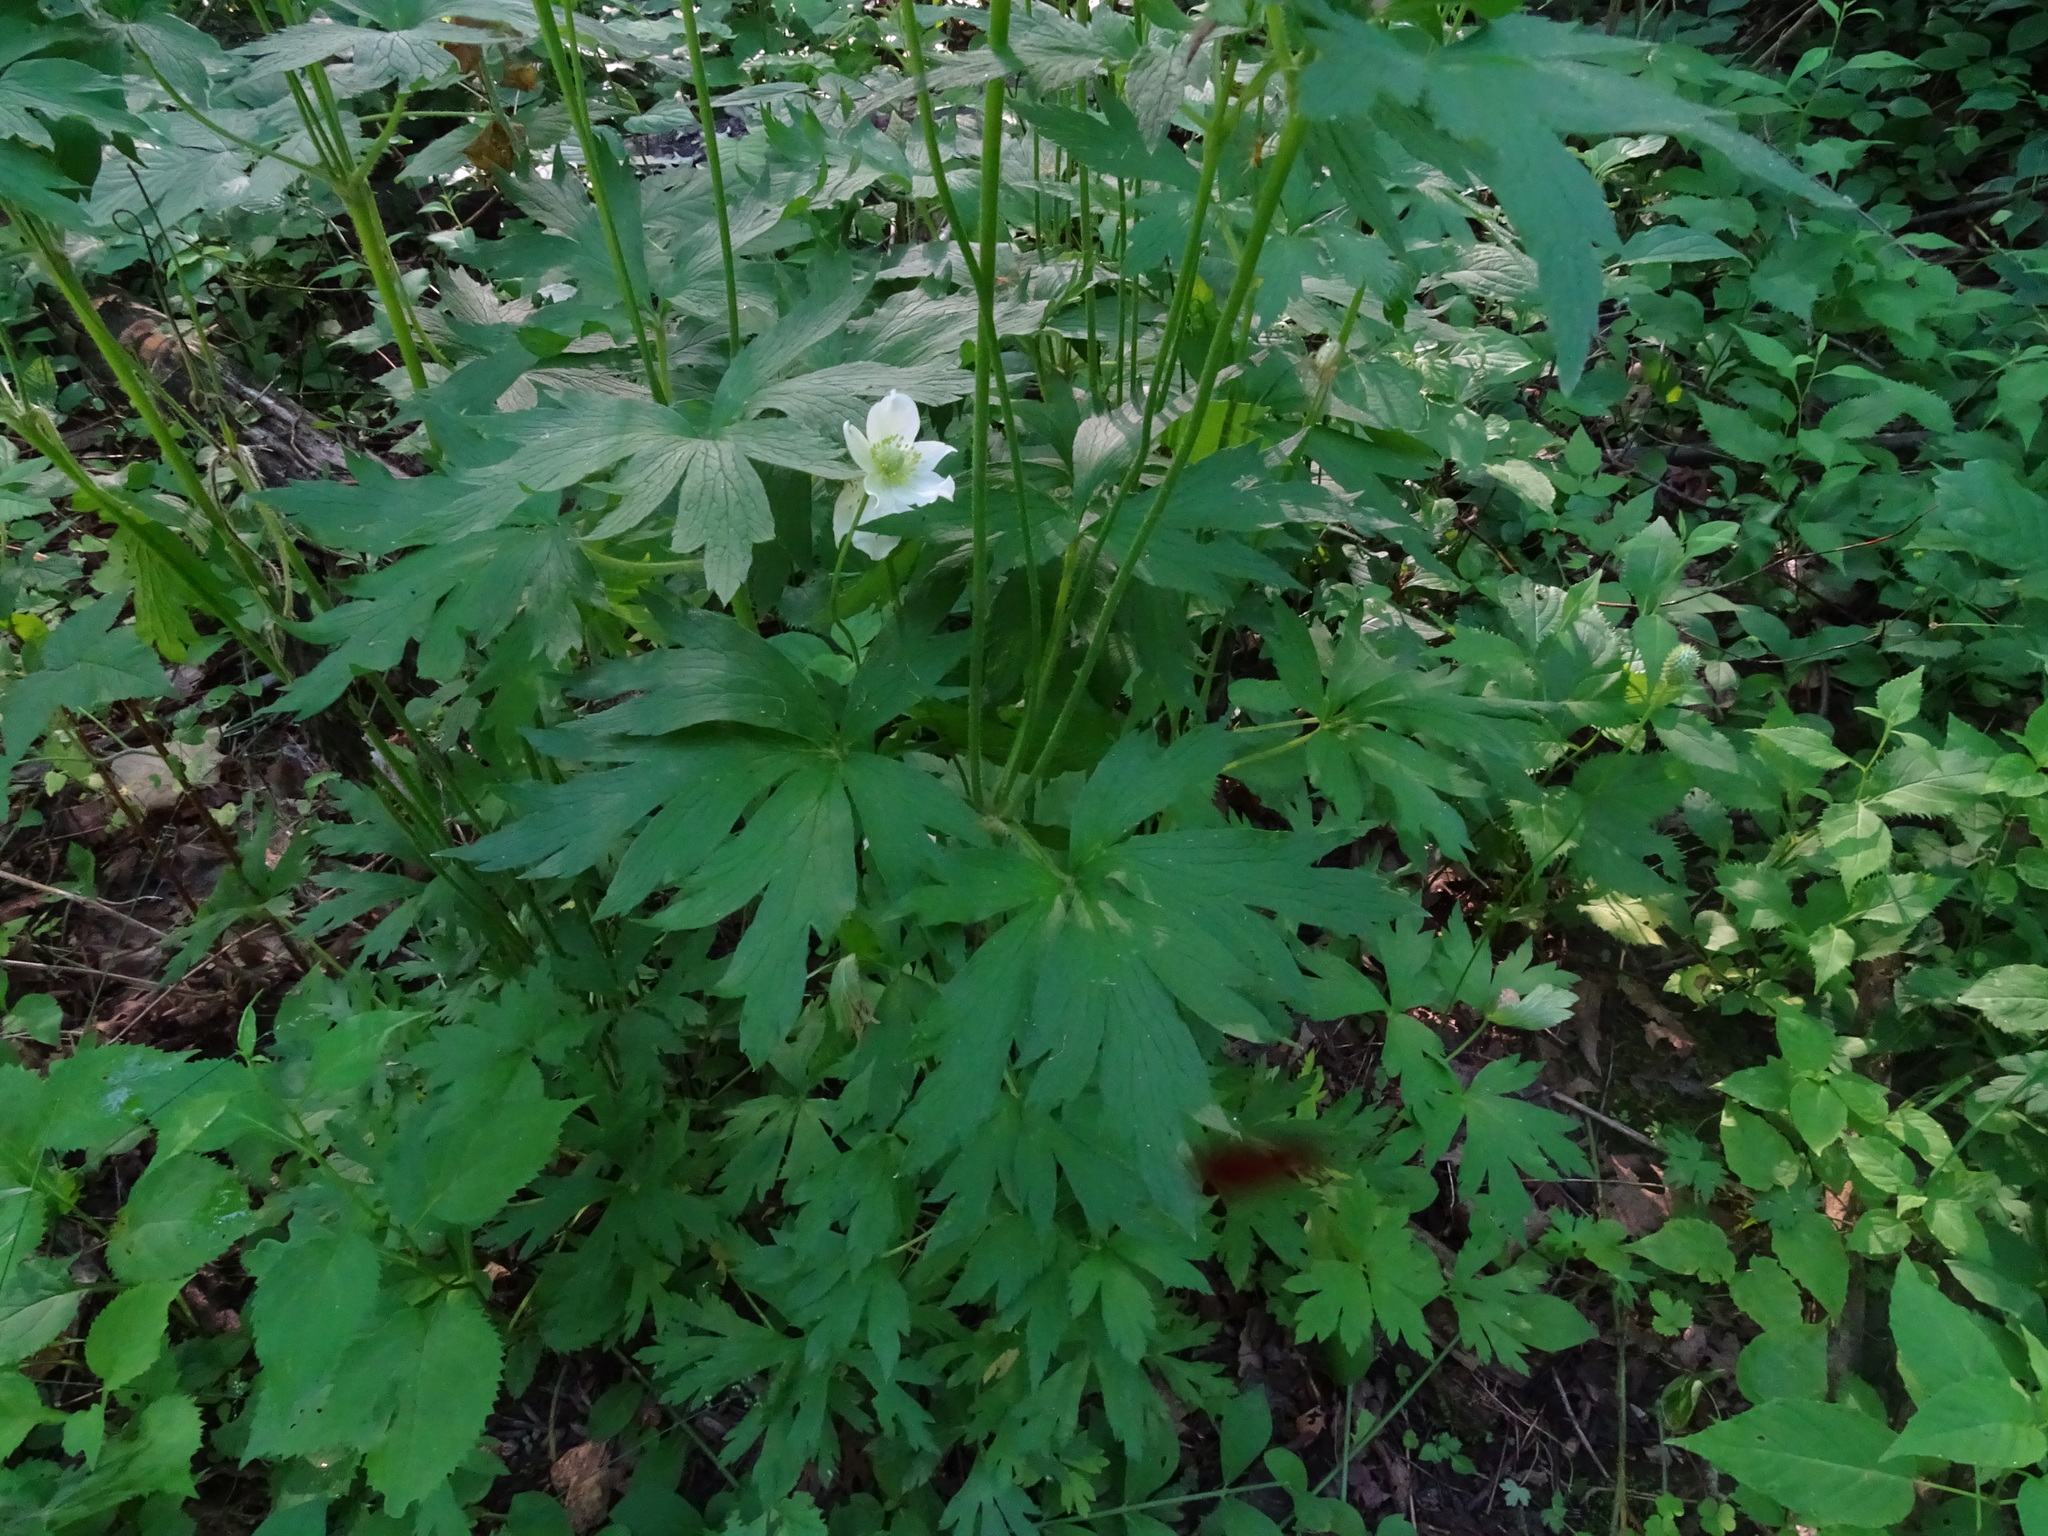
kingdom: Plantae
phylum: Tracheophyta
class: Magnoliopsida
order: Ranunculales
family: Ranunculaceae
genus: Anemone
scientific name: Anemone virginiana
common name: Tall anemone
